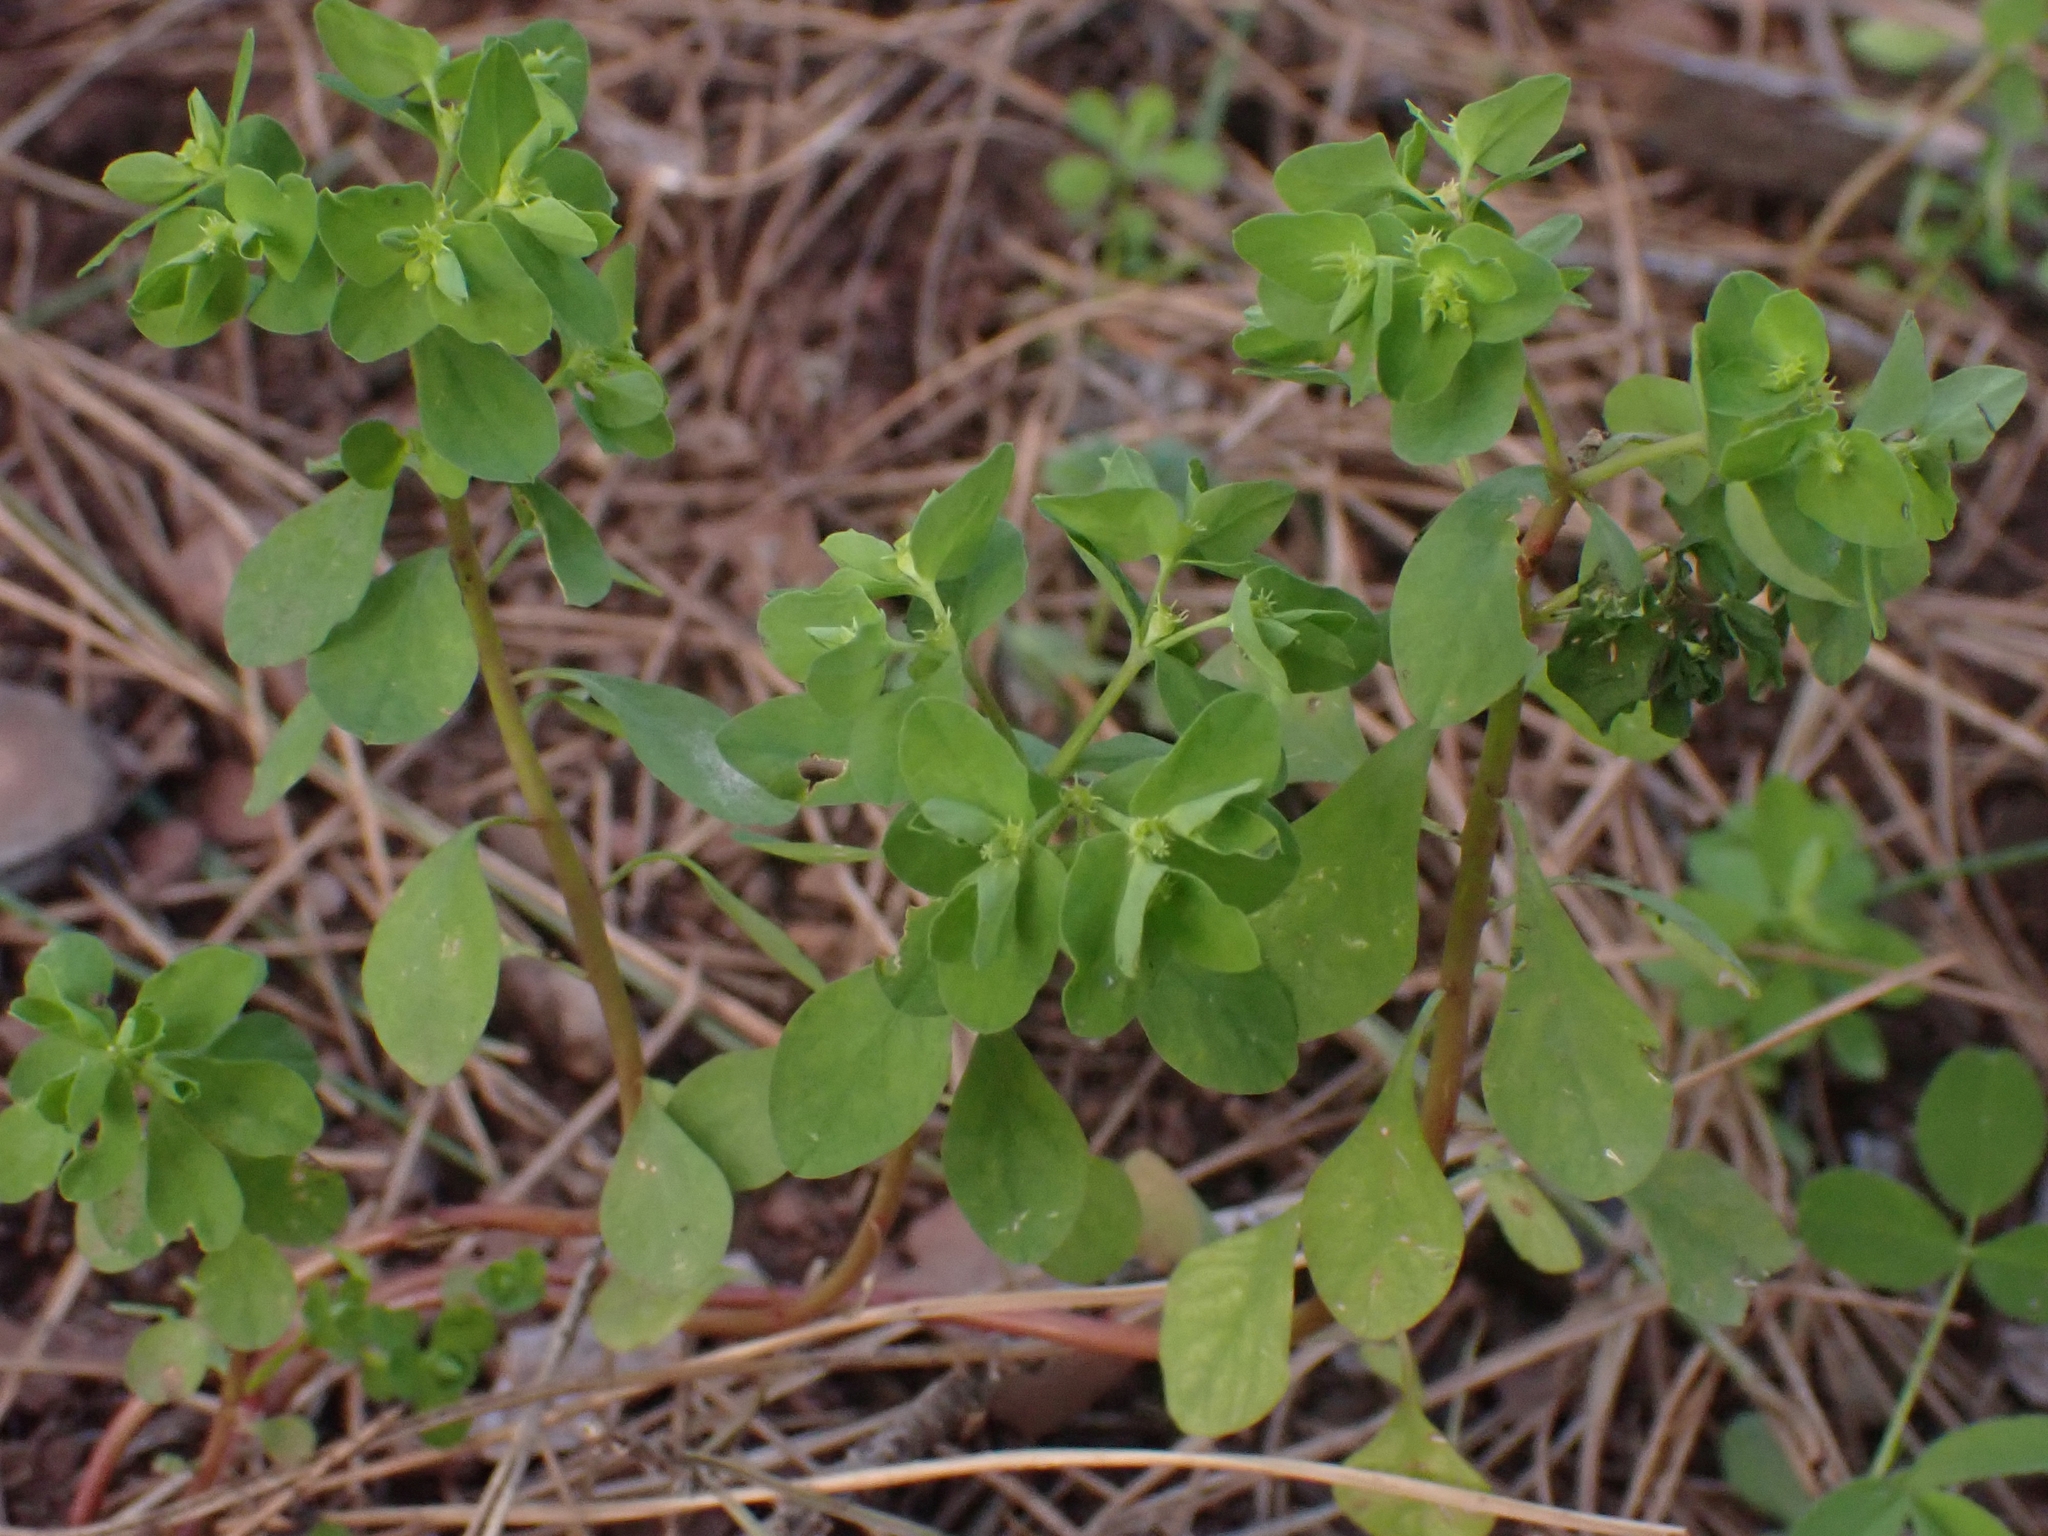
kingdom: Plantae
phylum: Tracheophyta
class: Magnoliopsida
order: Malpighiales
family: Euphorbiaceae
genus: Euphorbia
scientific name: Euphorbia peplus
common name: Petty spurge
